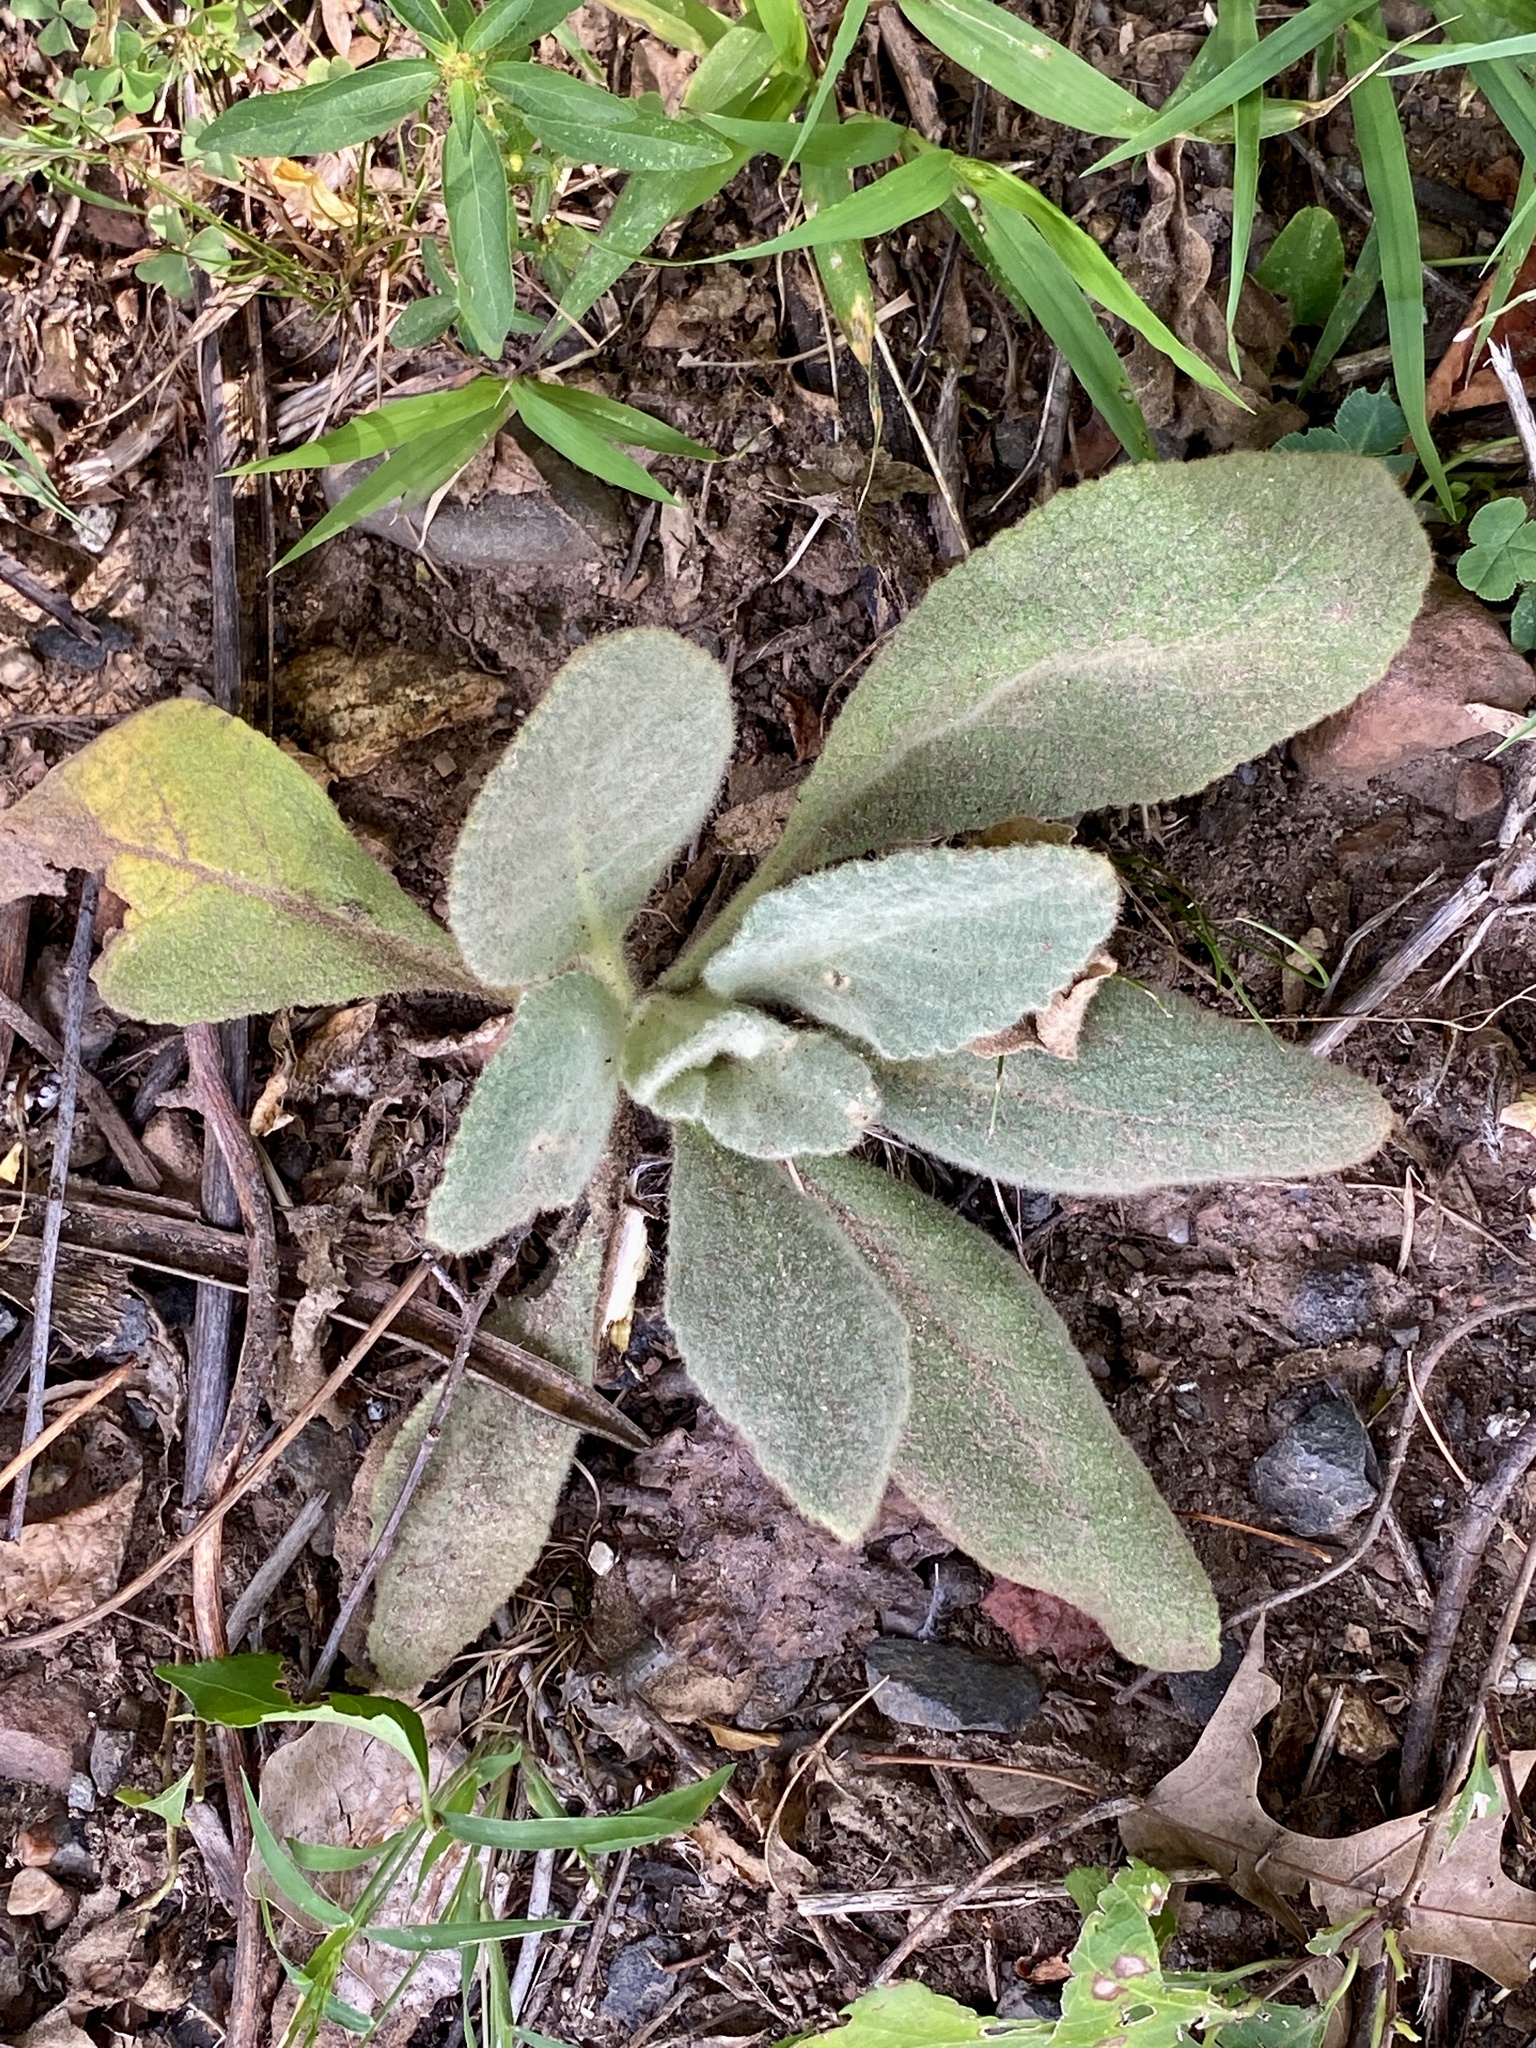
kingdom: Plantae
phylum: Tracheophyta
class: Magnoliopsida
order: Lamiales
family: Scrophulariaceae
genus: Verbascum
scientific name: Verbascum thapsus
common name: Common mullein
